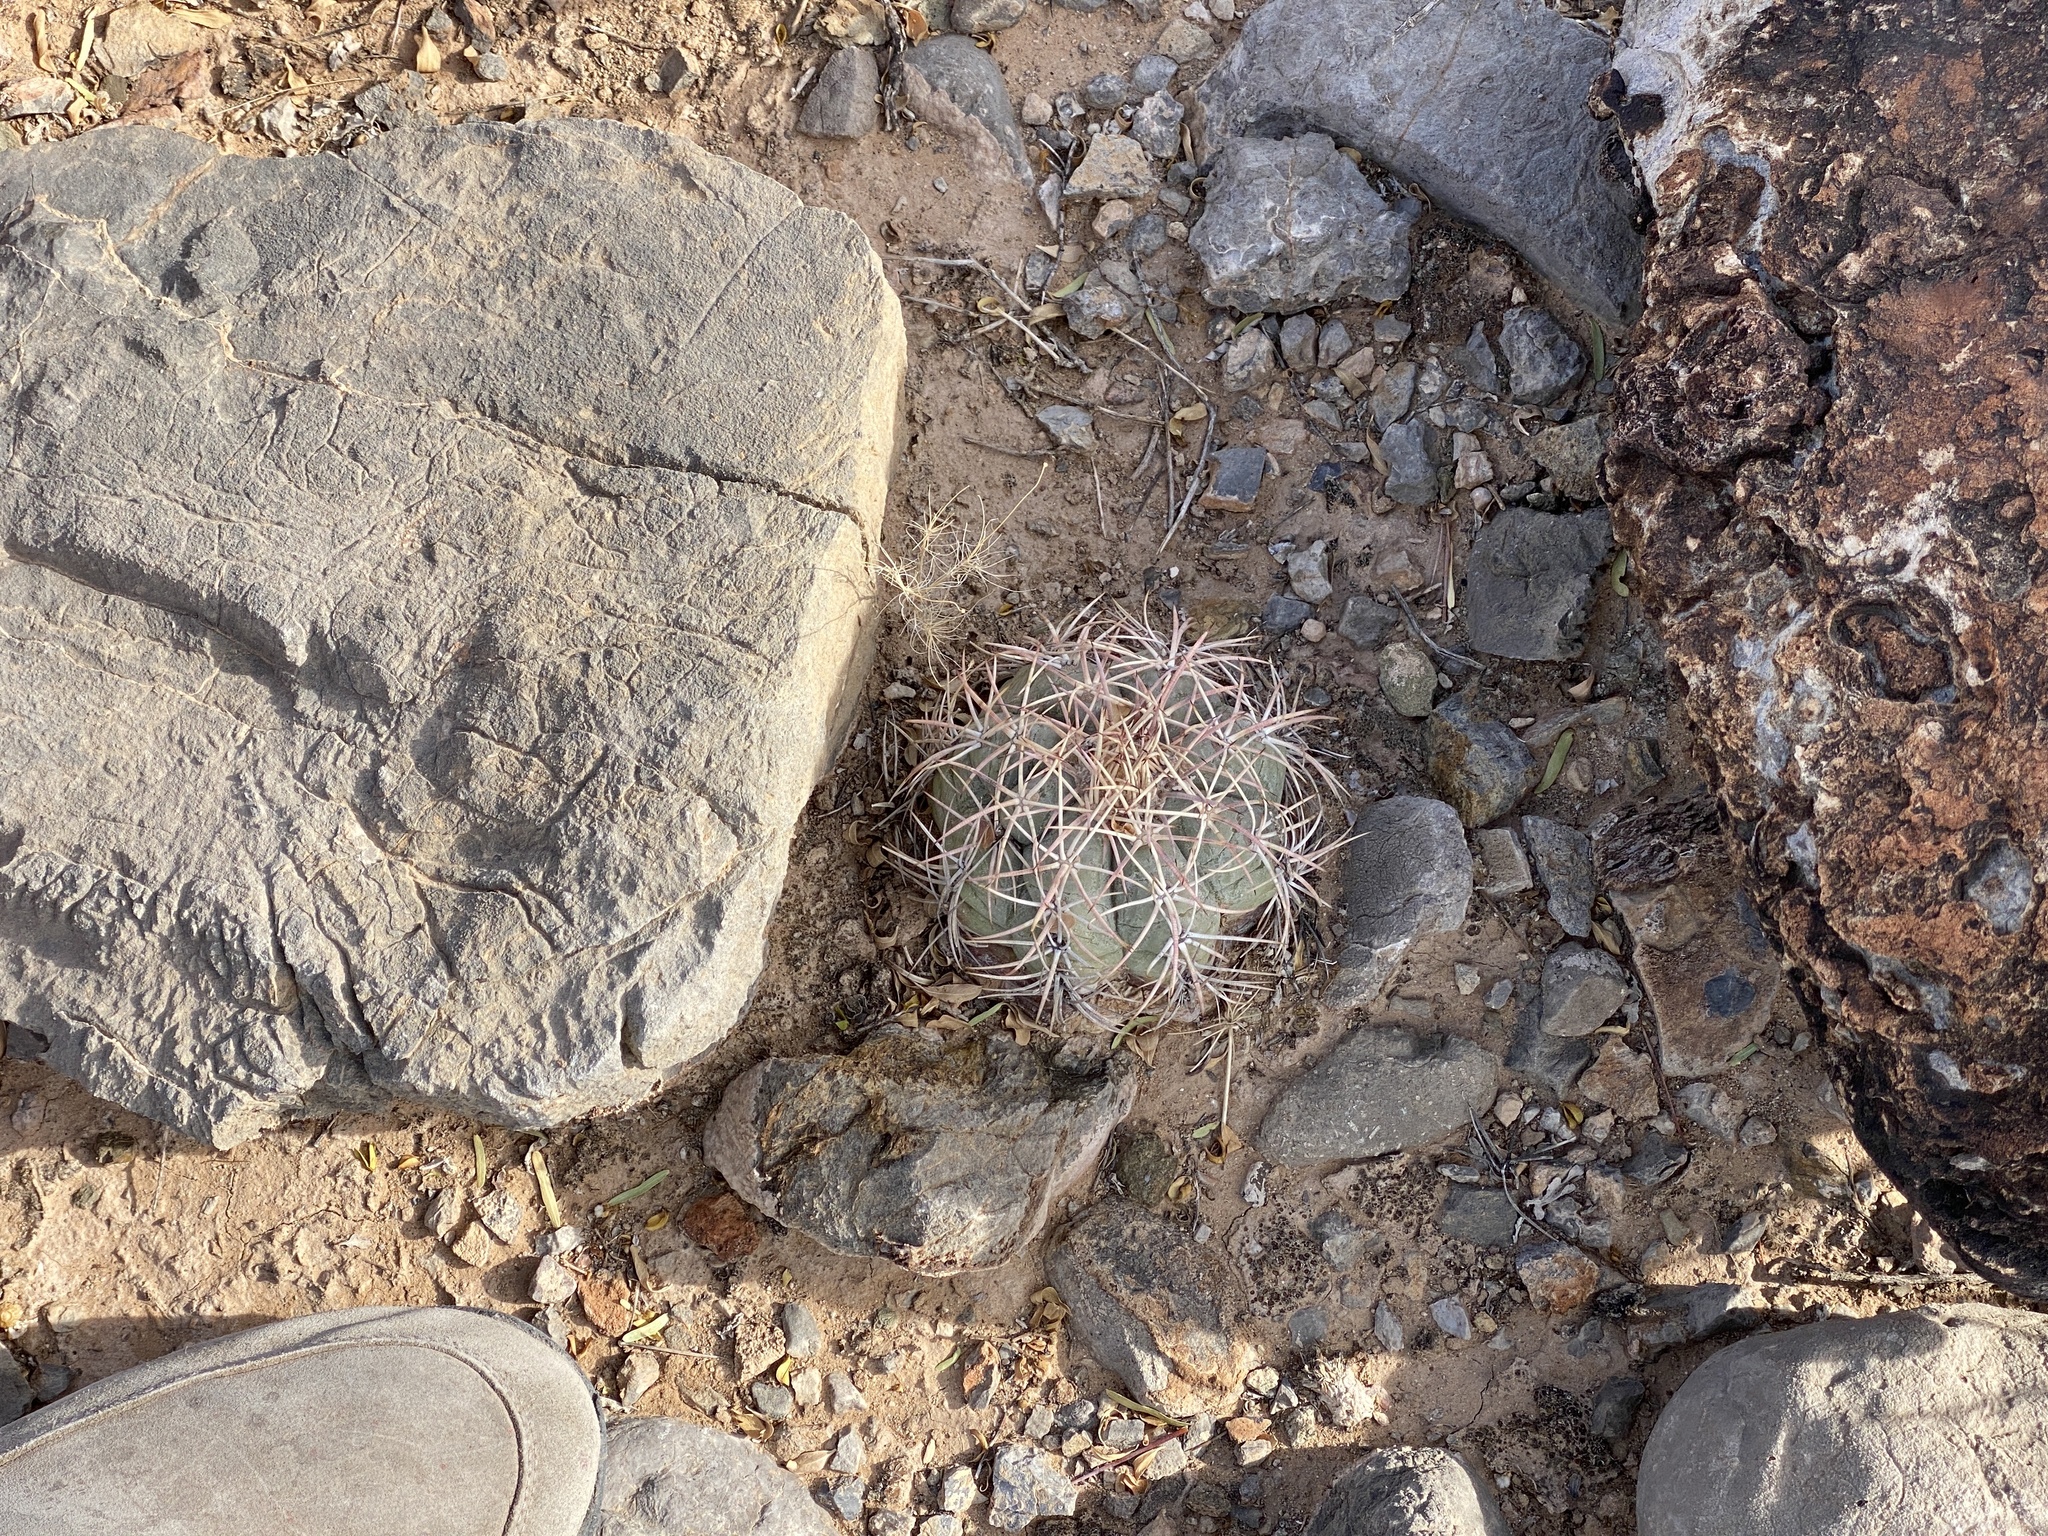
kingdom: Plantae
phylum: Tracheophyta
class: Magnoliopsida
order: Caryophyllales
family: Cactaceae
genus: Echinocactus
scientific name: Echinocactus horizonthalonius
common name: Devilshead
